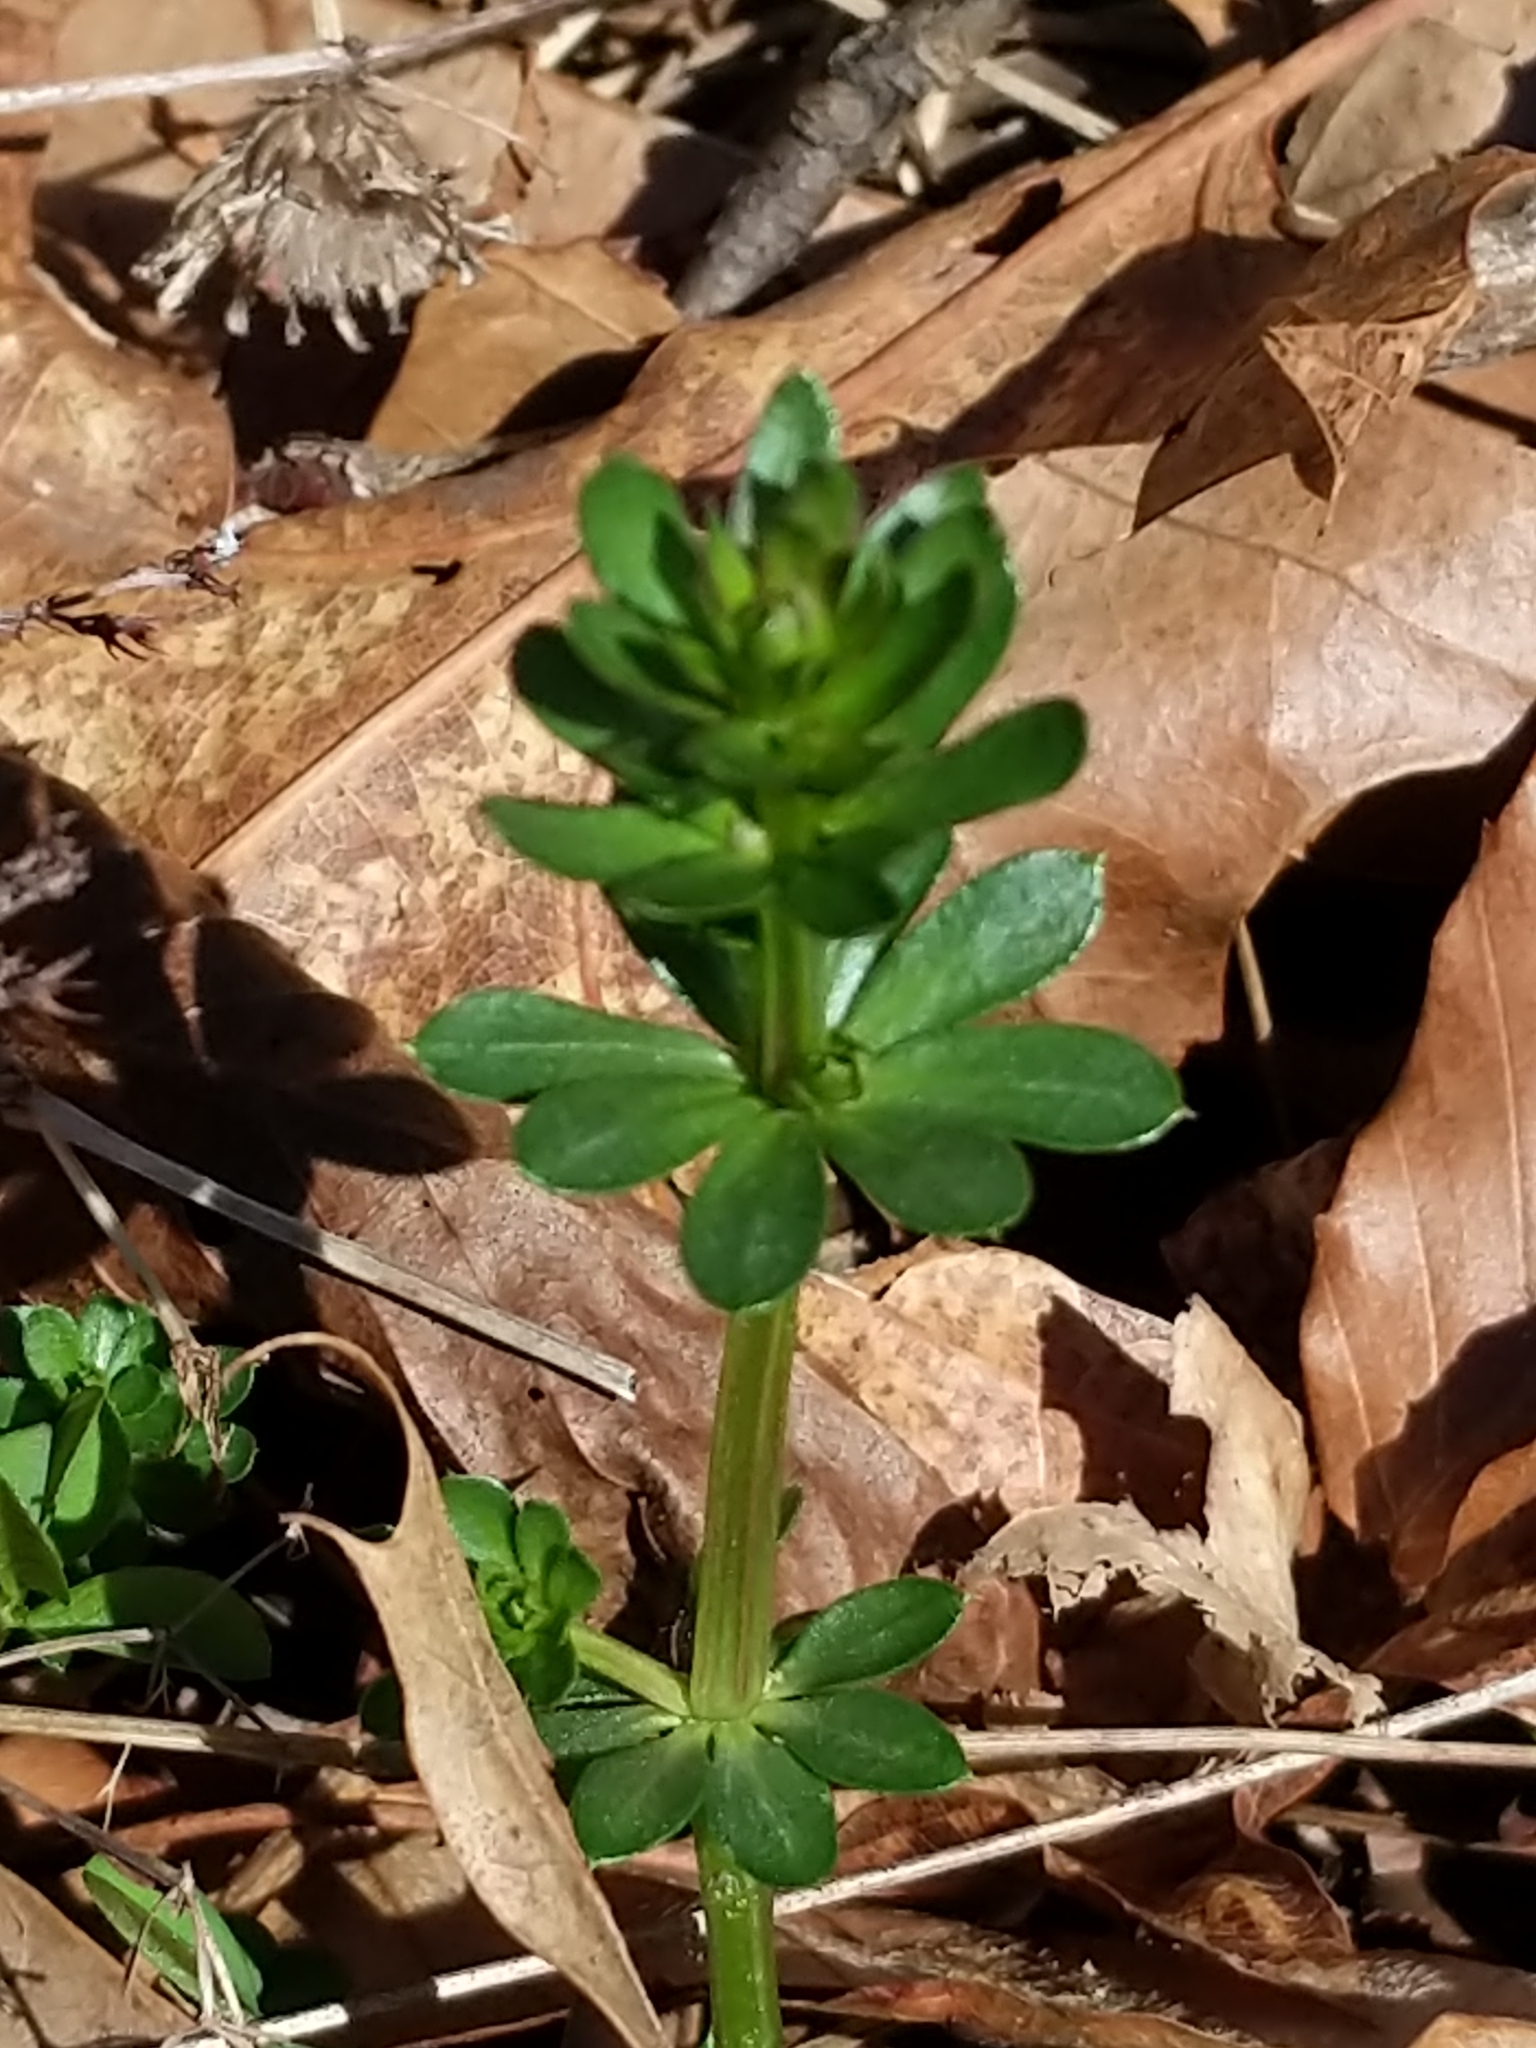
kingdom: Plantae
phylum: Tracheophyta
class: Magnoliopsida
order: Gentianales
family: Rubiaceae
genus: Galium
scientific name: Galium mollugo
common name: Hedge bedstraw
